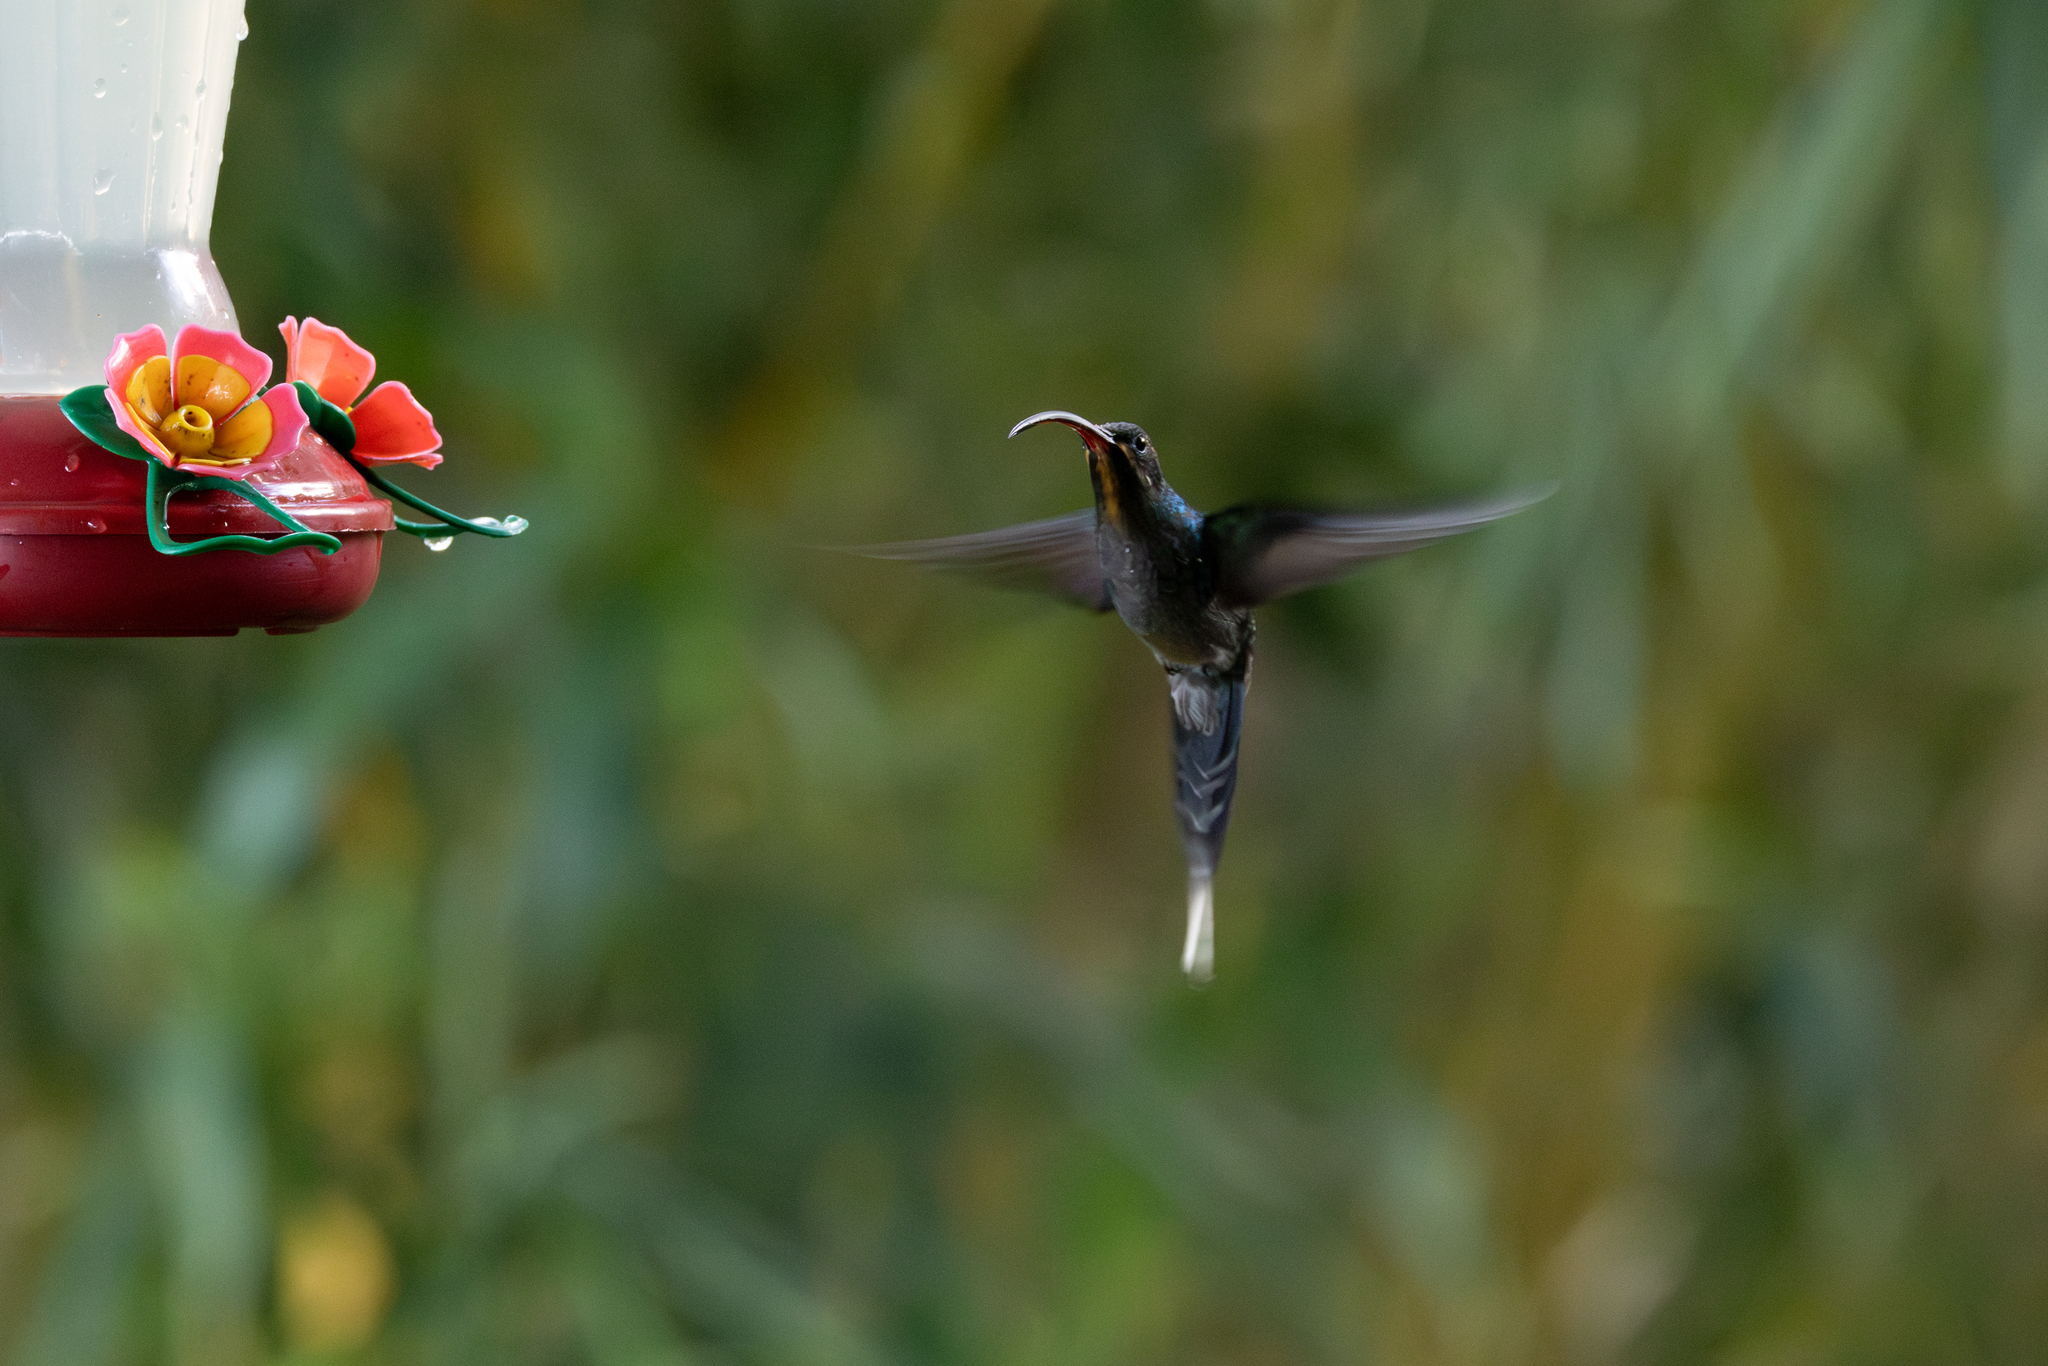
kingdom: Animalia
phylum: Chordata
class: Aves
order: Apodiformes
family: Trochilidae
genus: Phaethornis
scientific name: Phaethornis guy
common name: Green hermit
